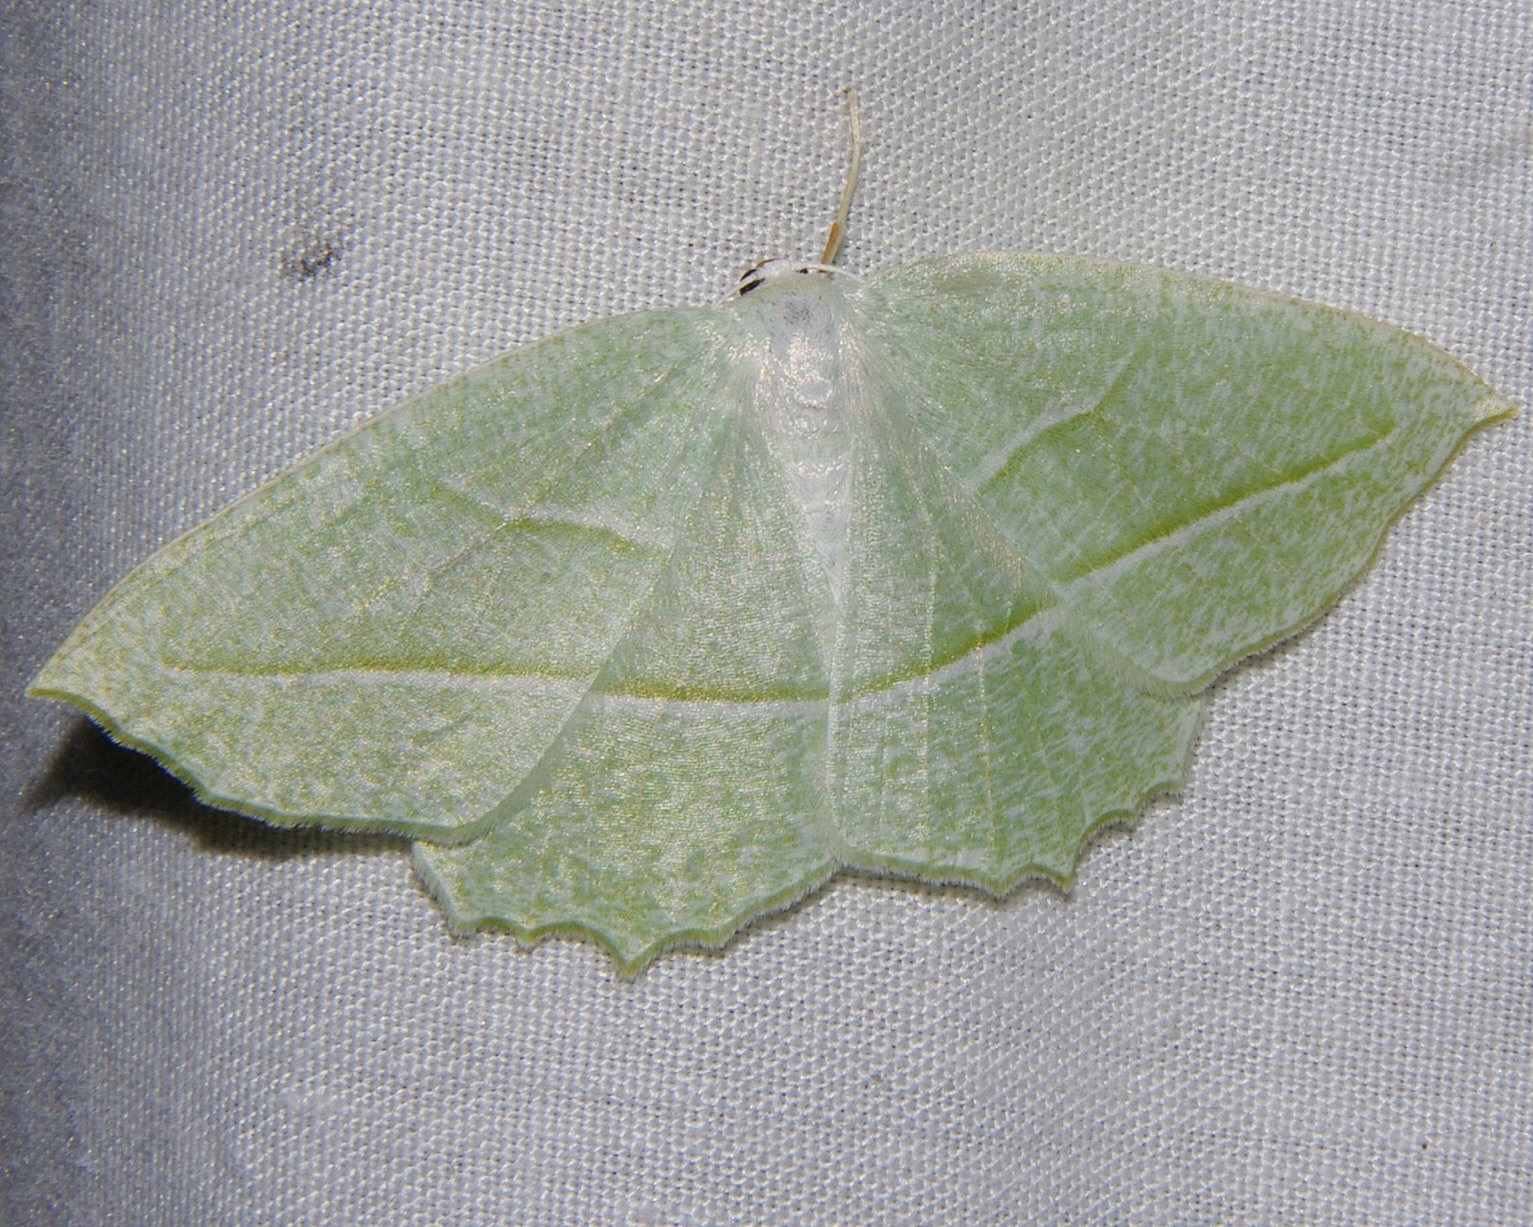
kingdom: Animalia
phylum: Arthropoda
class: Insecta
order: Lepidoptera
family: Geometridae
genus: Campaea
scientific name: Campaea perlata
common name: Fringed looper
